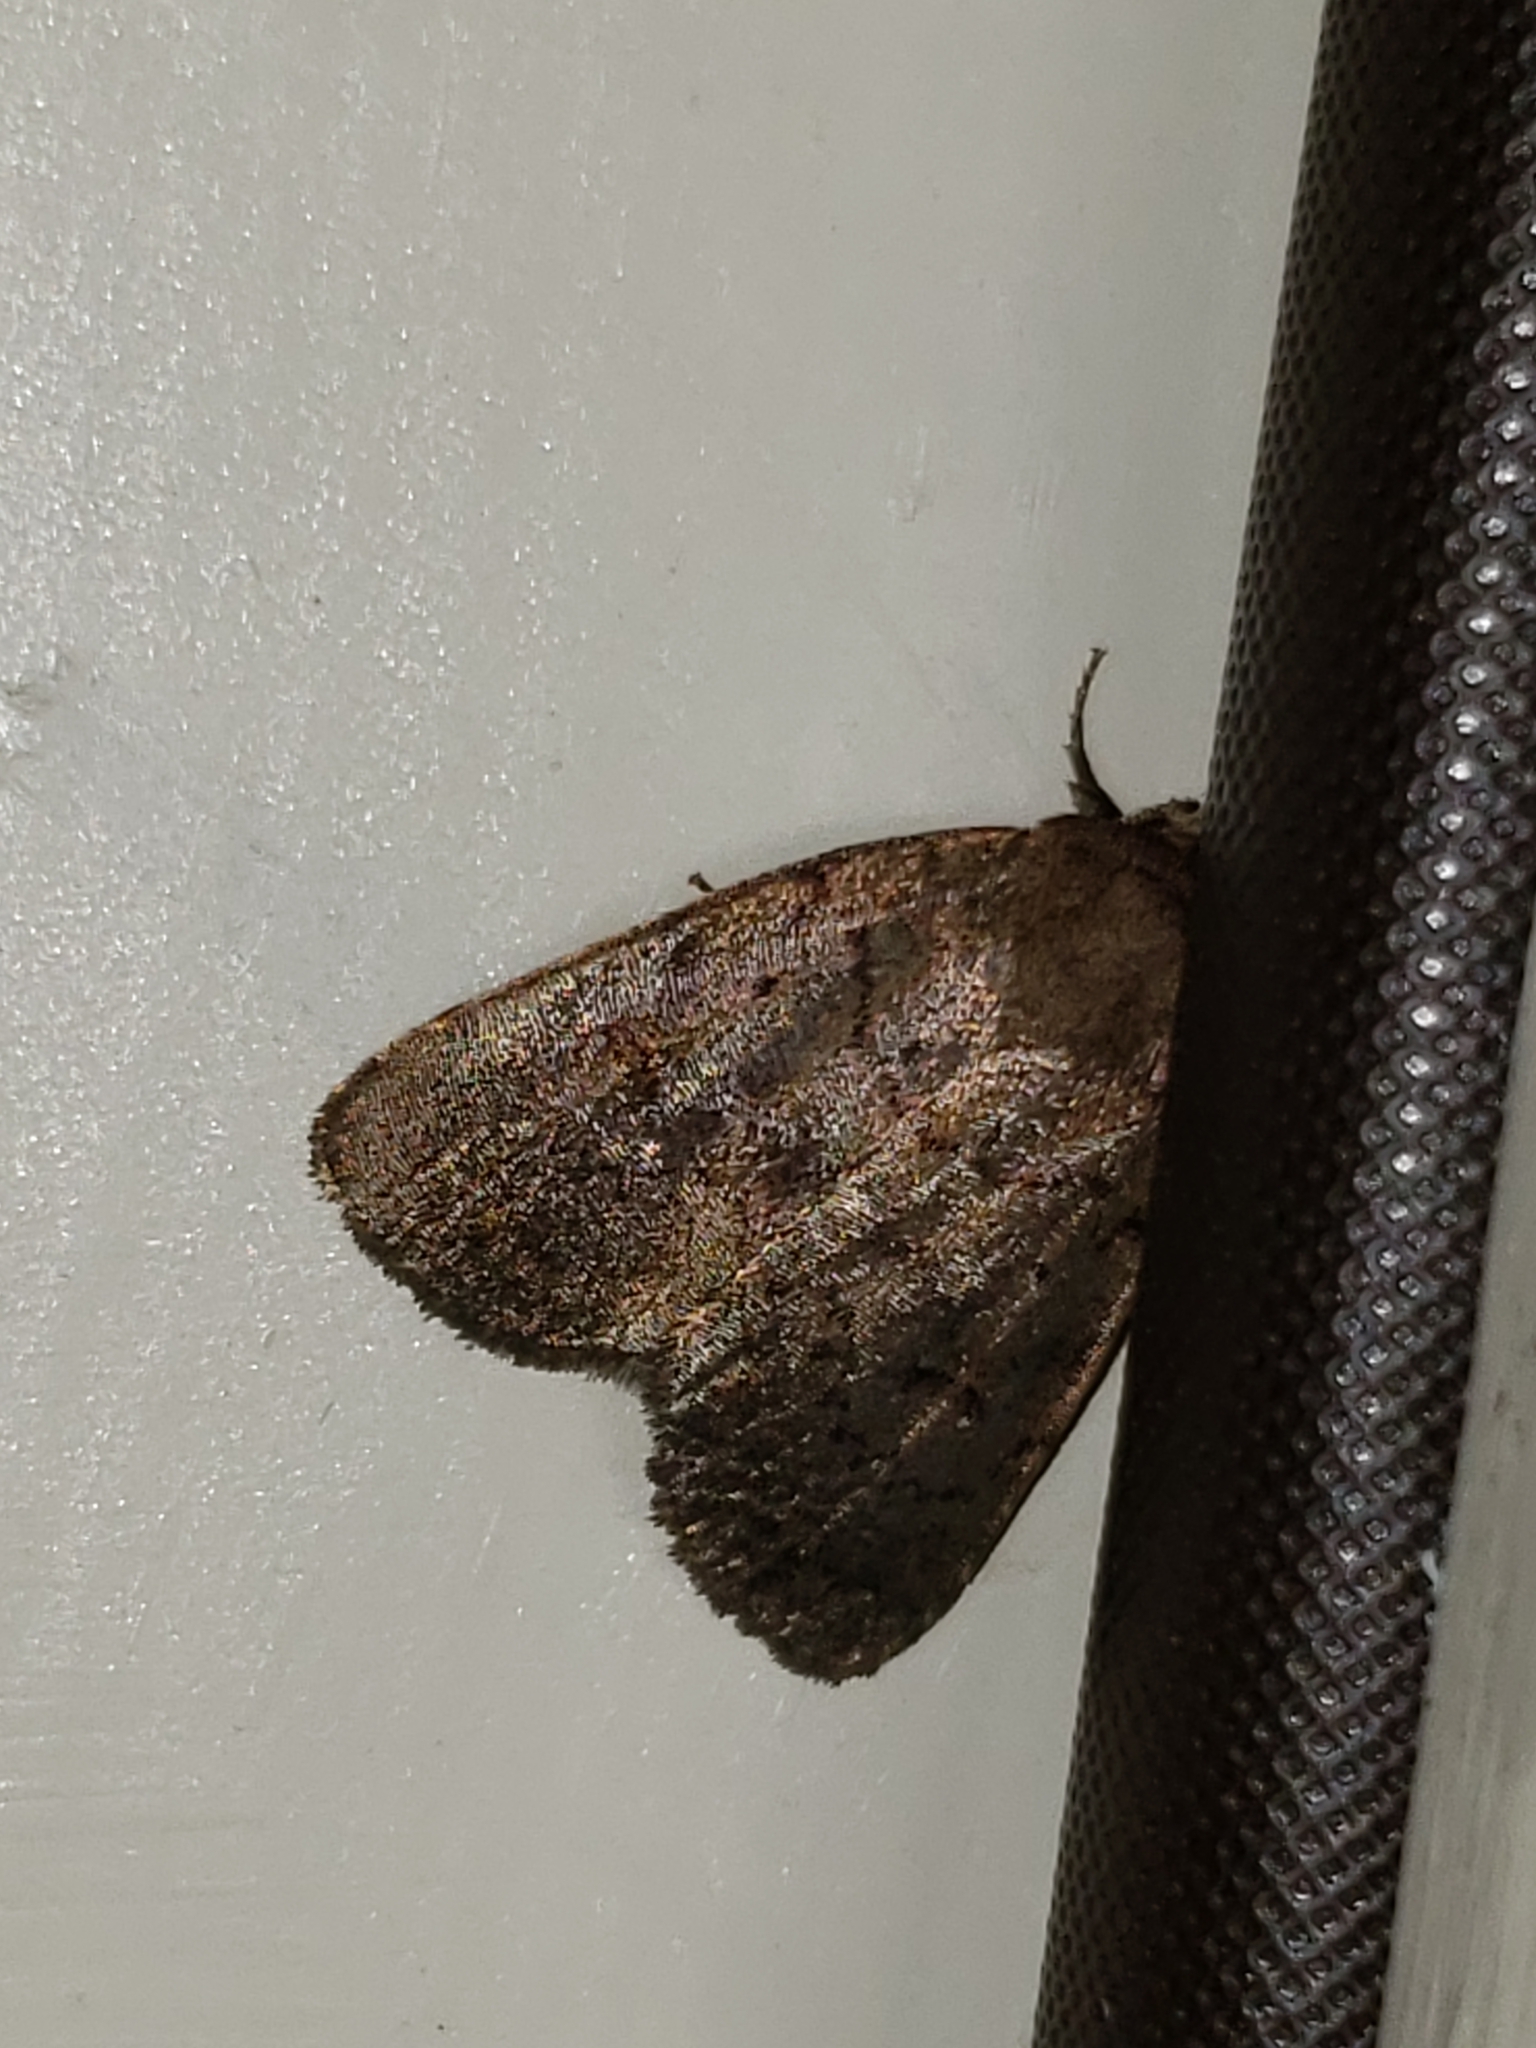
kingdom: Animalia
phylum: Arthropoda
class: Insecta
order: Lepidoptera
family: Noctuidae
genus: Athetis
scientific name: Athetis tarda
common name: Slowpoke moth
